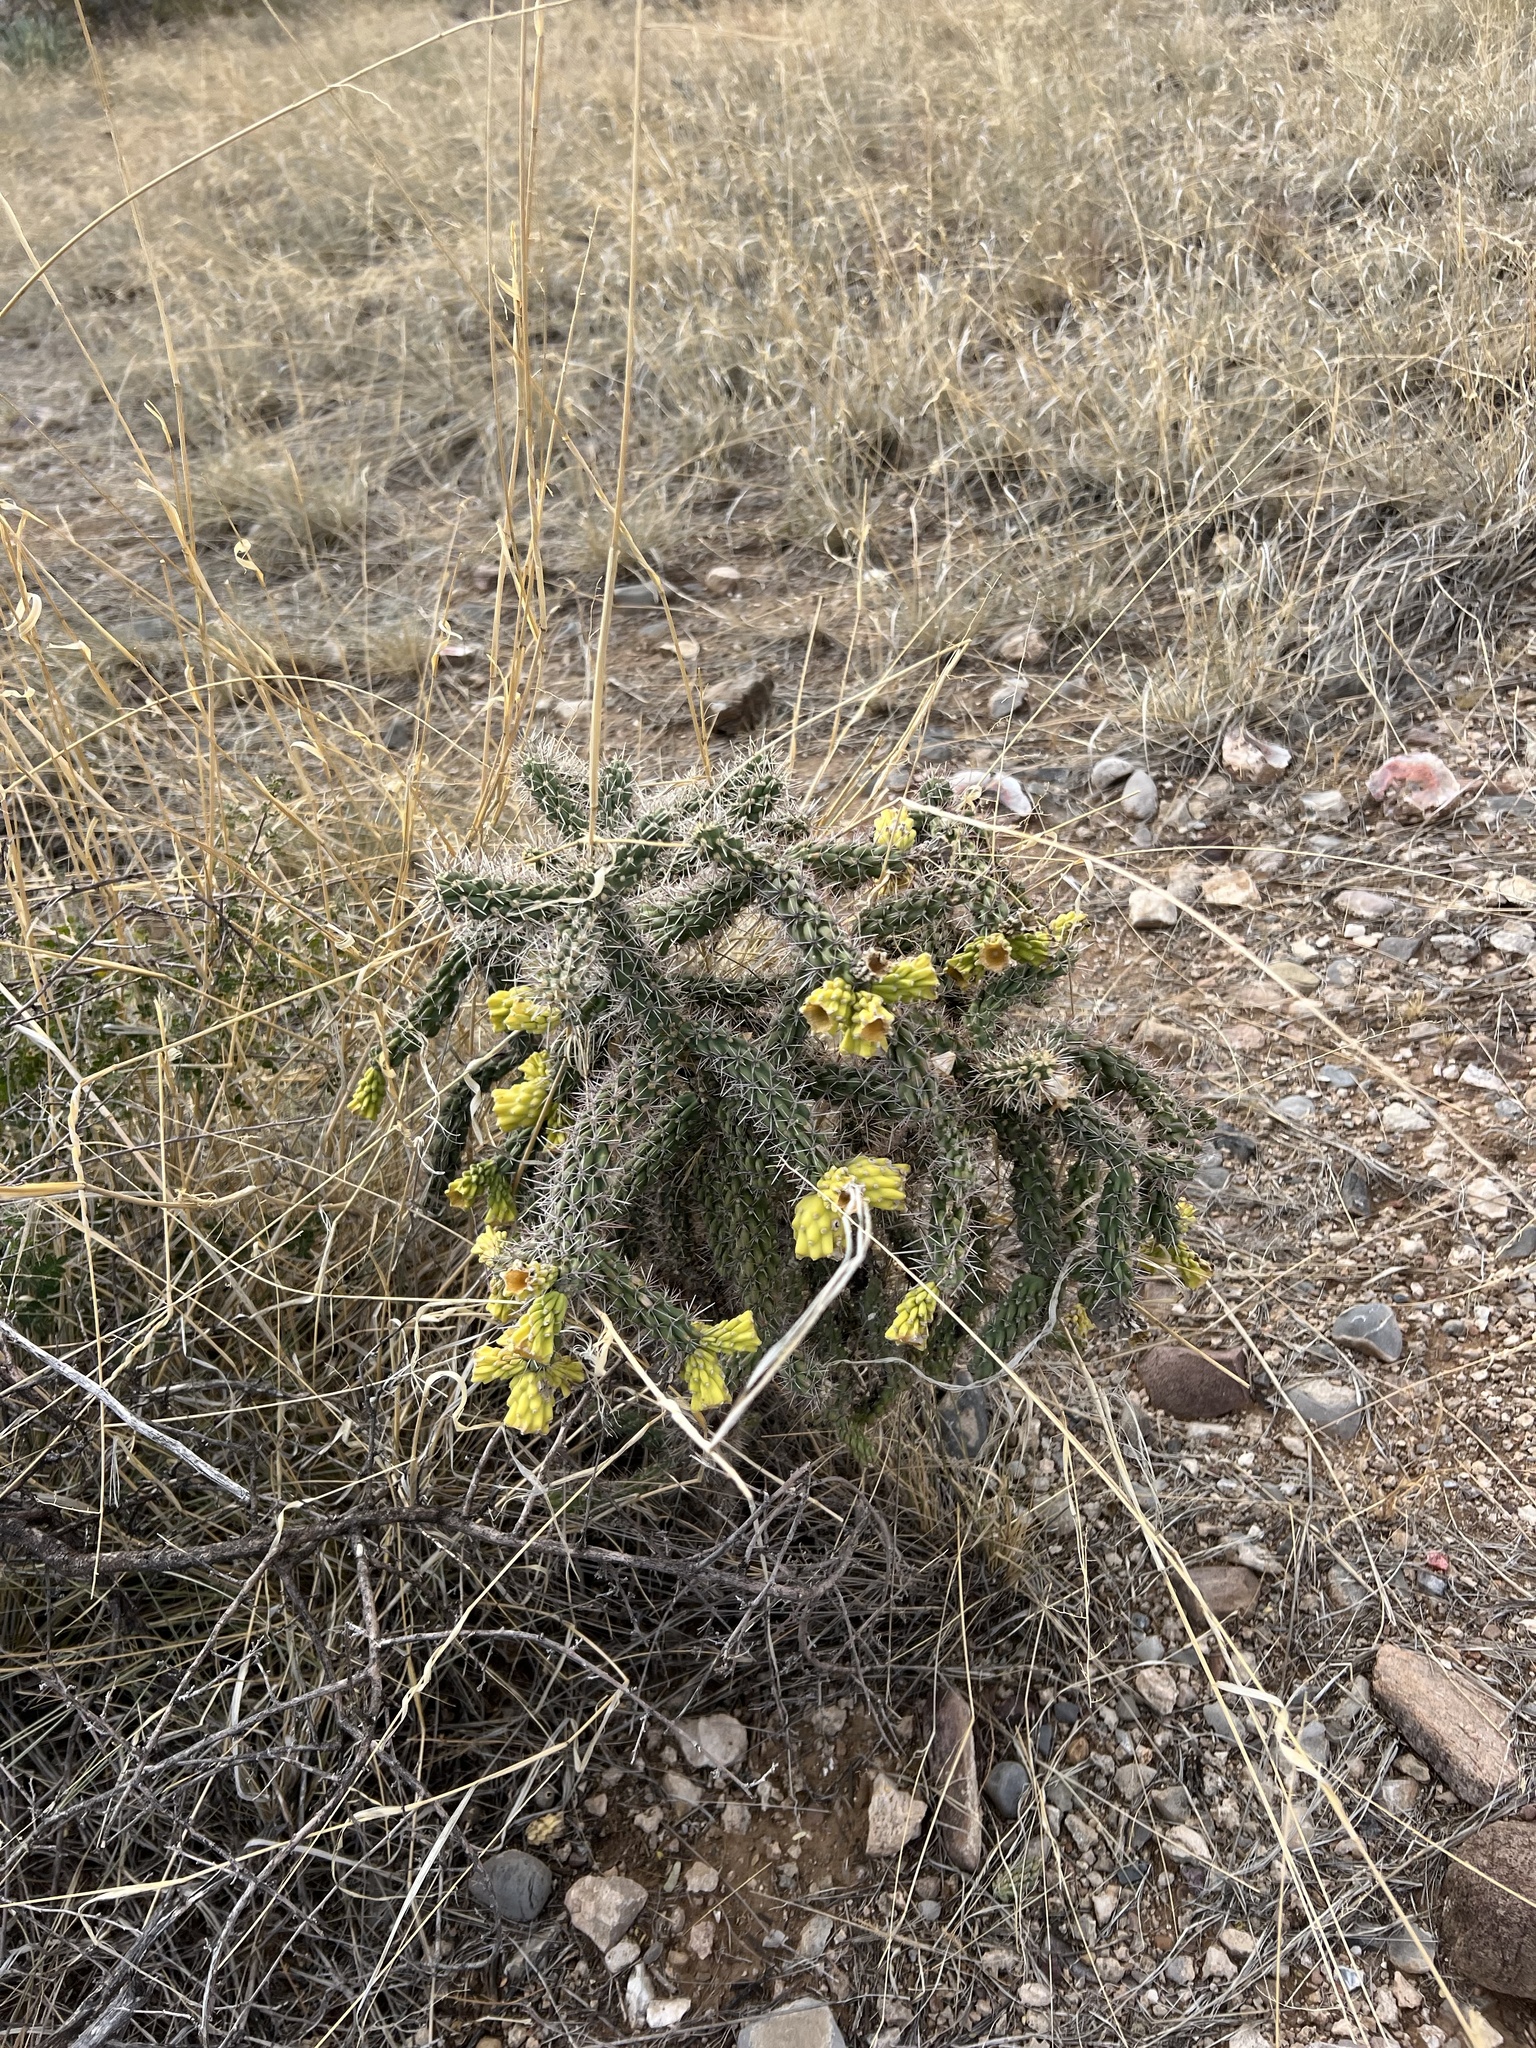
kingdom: Plantae
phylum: Tracheophyta
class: Magnoliopsida
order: Caryophyllales
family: Cactaceae
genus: Cylindropuntia
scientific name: Cylindropuntia imbricata
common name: Candelabrum cactus
